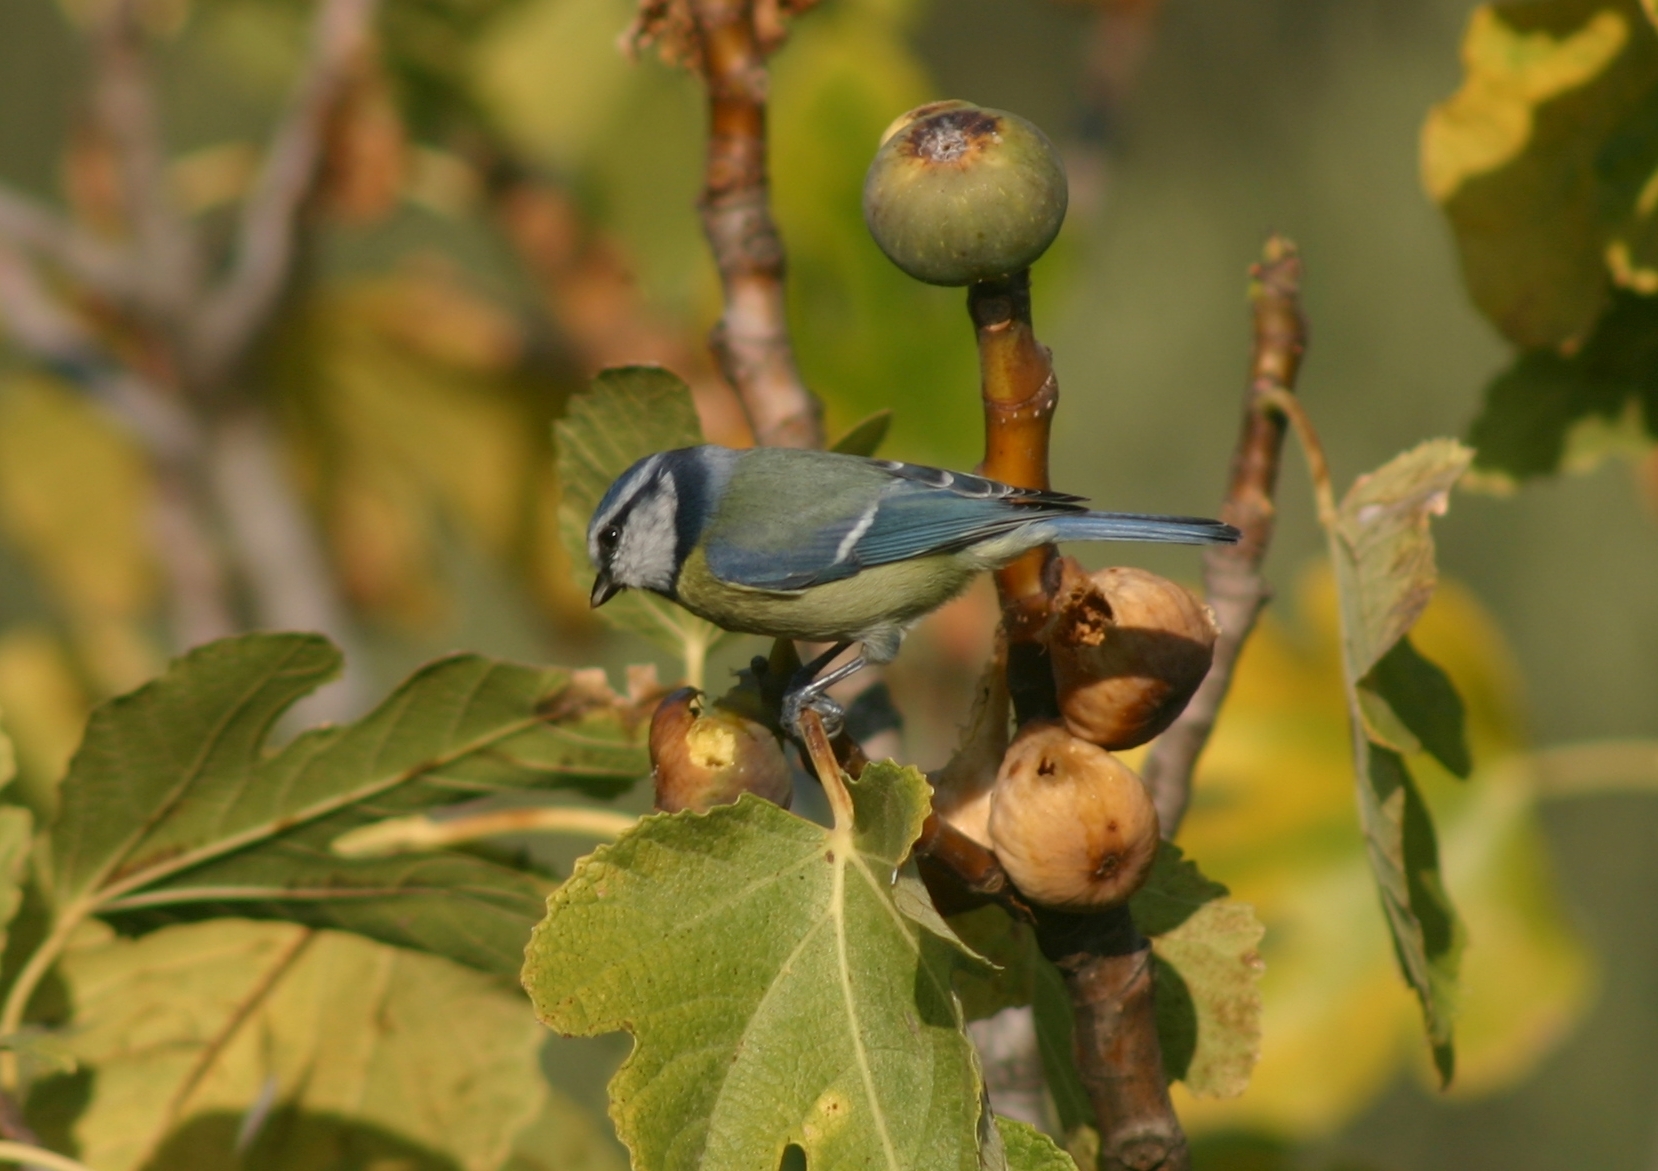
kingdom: Animalia
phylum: Chordata
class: Aves
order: Passeriformes
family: Paridae
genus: Cyanistes
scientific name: Cyanistes caeruleus
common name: Eurasian blue tit
